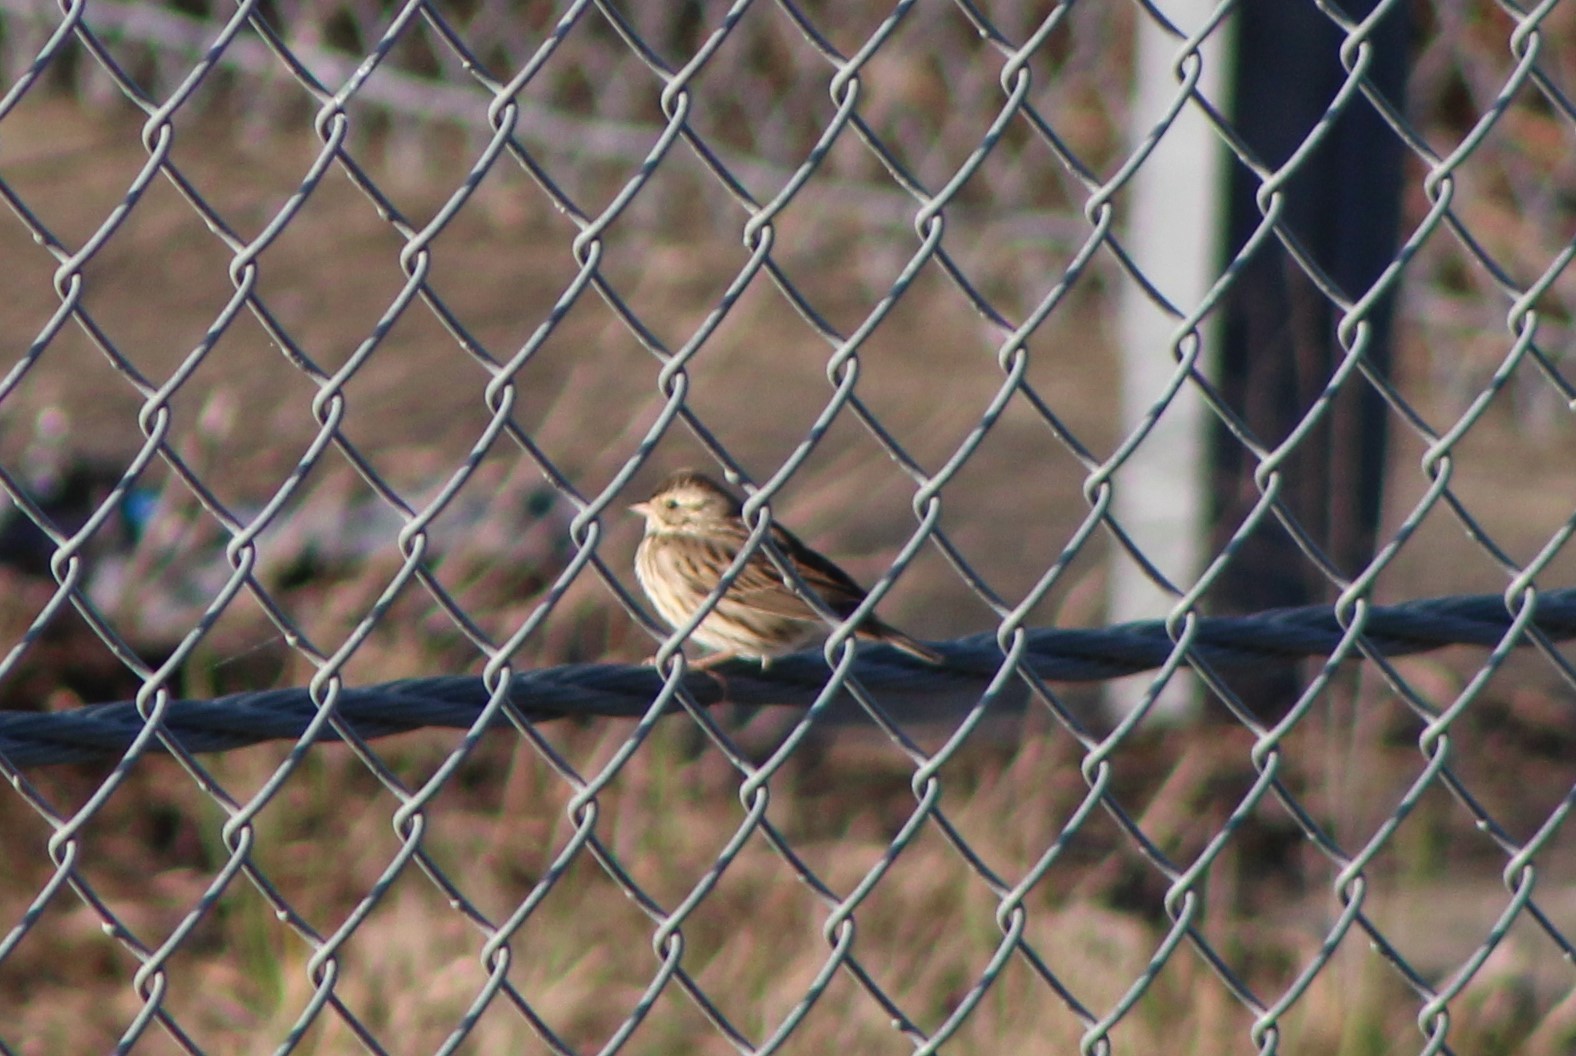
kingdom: Animalia
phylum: Chordata
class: Aves
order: Passeriformes
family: Passerellidae
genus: Passerculus
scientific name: Passerculus sandwichensis
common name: Savannah sparrow
